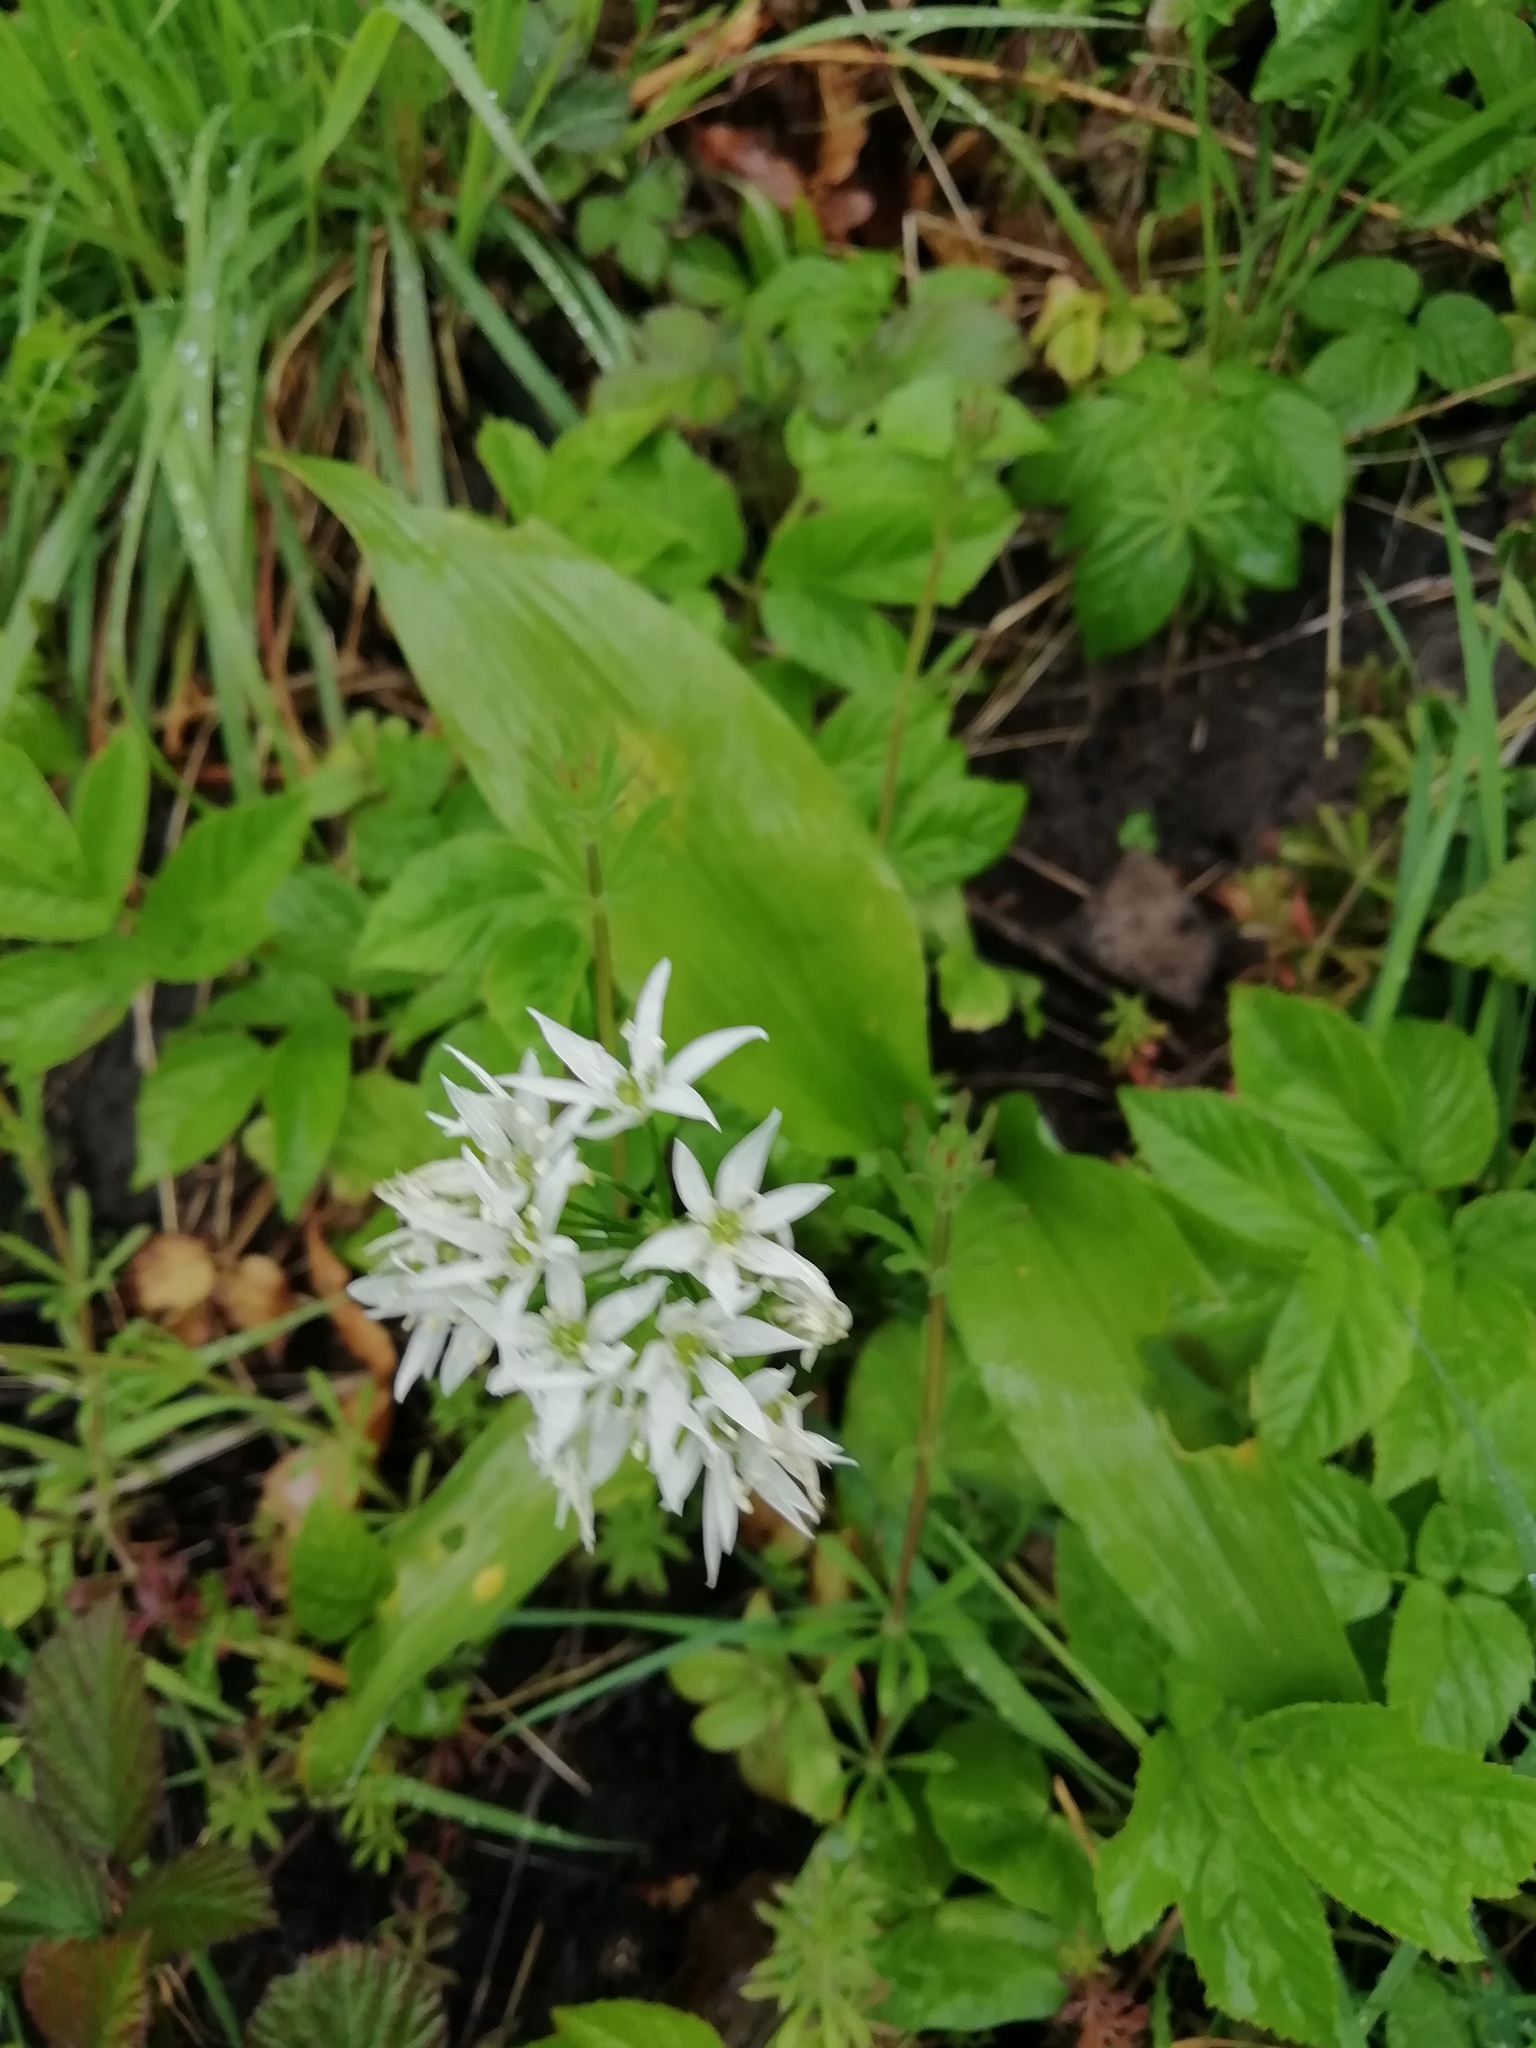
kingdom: Plantae
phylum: Tracheophyta
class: Liliopsida
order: Asparagales
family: Amaryllidaceae
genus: Allium
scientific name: Allium ursinum
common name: Ramsons
